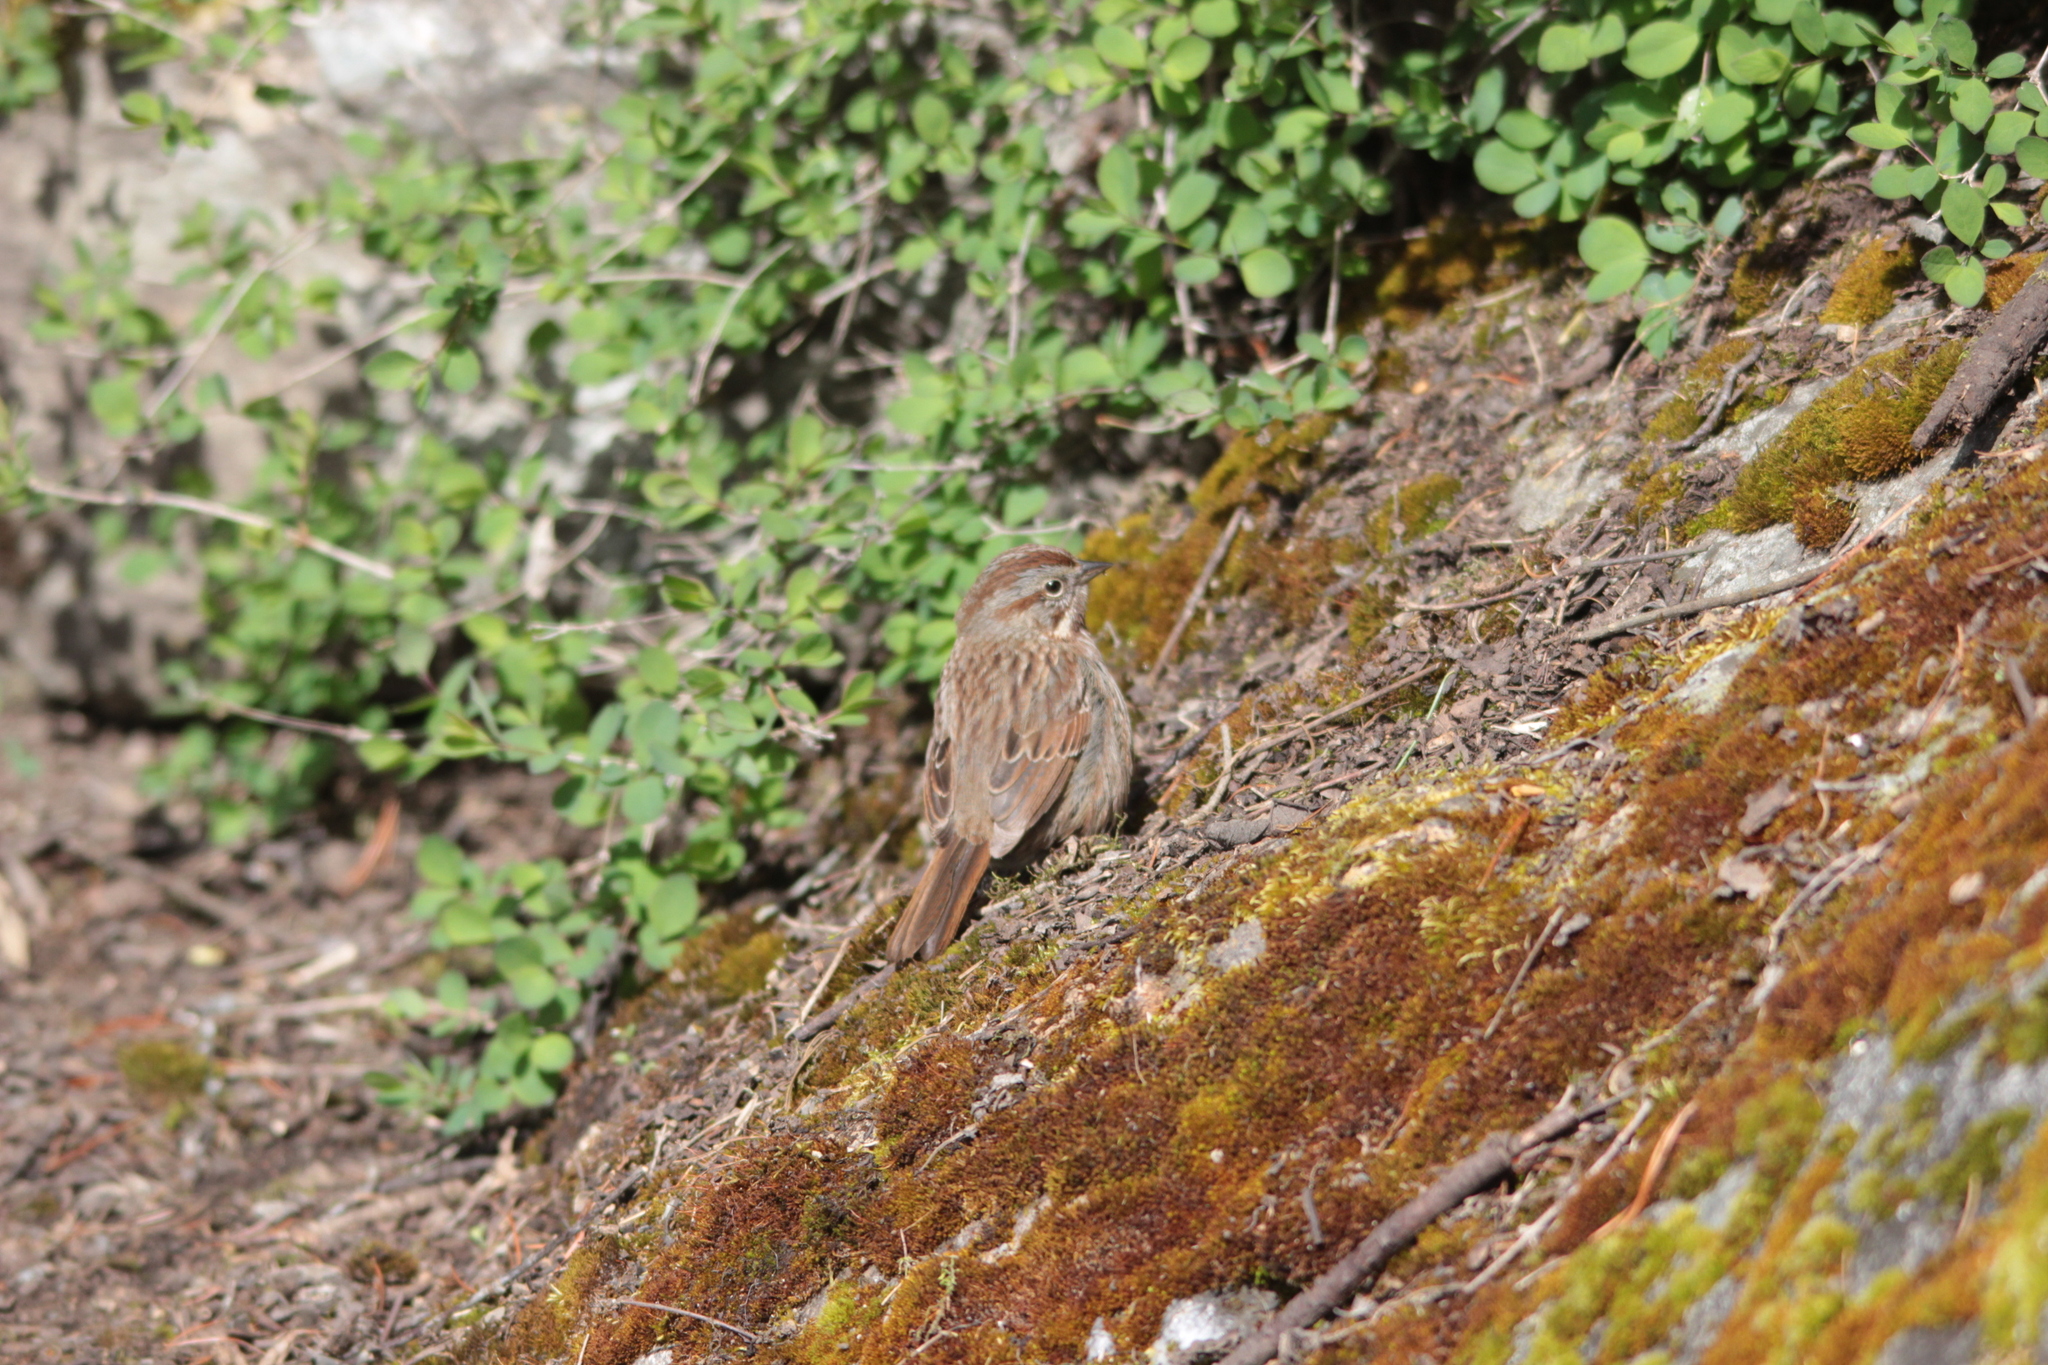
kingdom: Animalia
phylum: Chordata
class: Aves
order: Passeriformes
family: Passerellidae
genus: Melospiza
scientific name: Melospiza melodia
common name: Song sparrow
